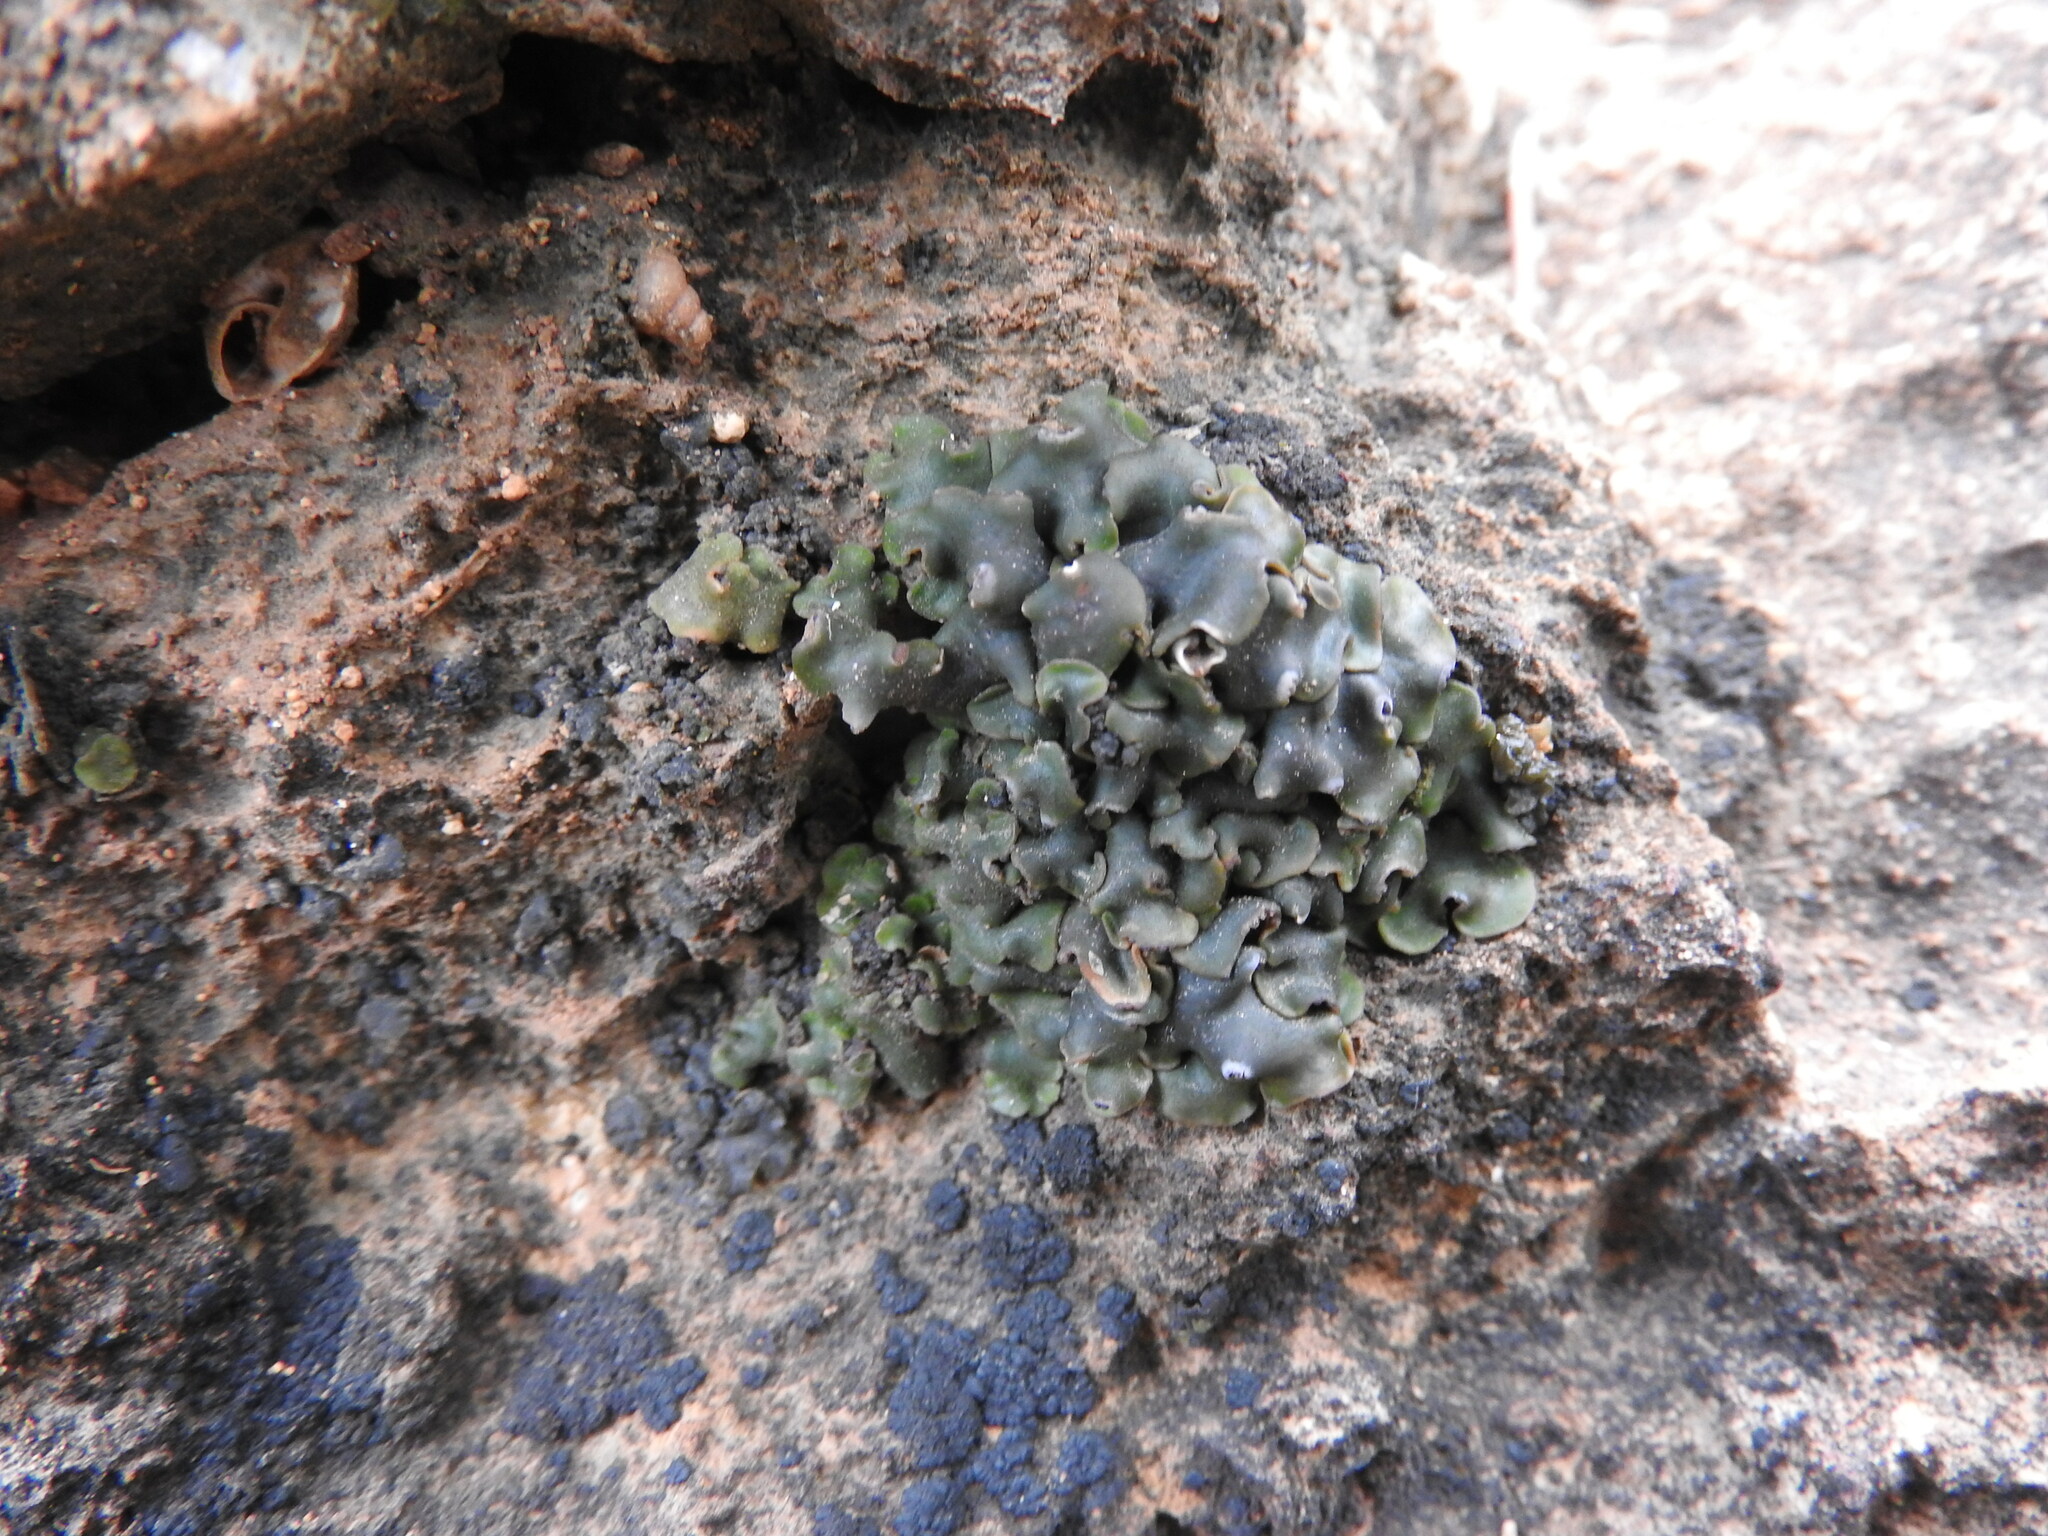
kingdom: Fungi
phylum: Ascomycota
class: Lecanoromycetes
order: Lecanorales
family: Catillariaceae
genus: Solenopsora
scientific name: Solenopsora holophaea
